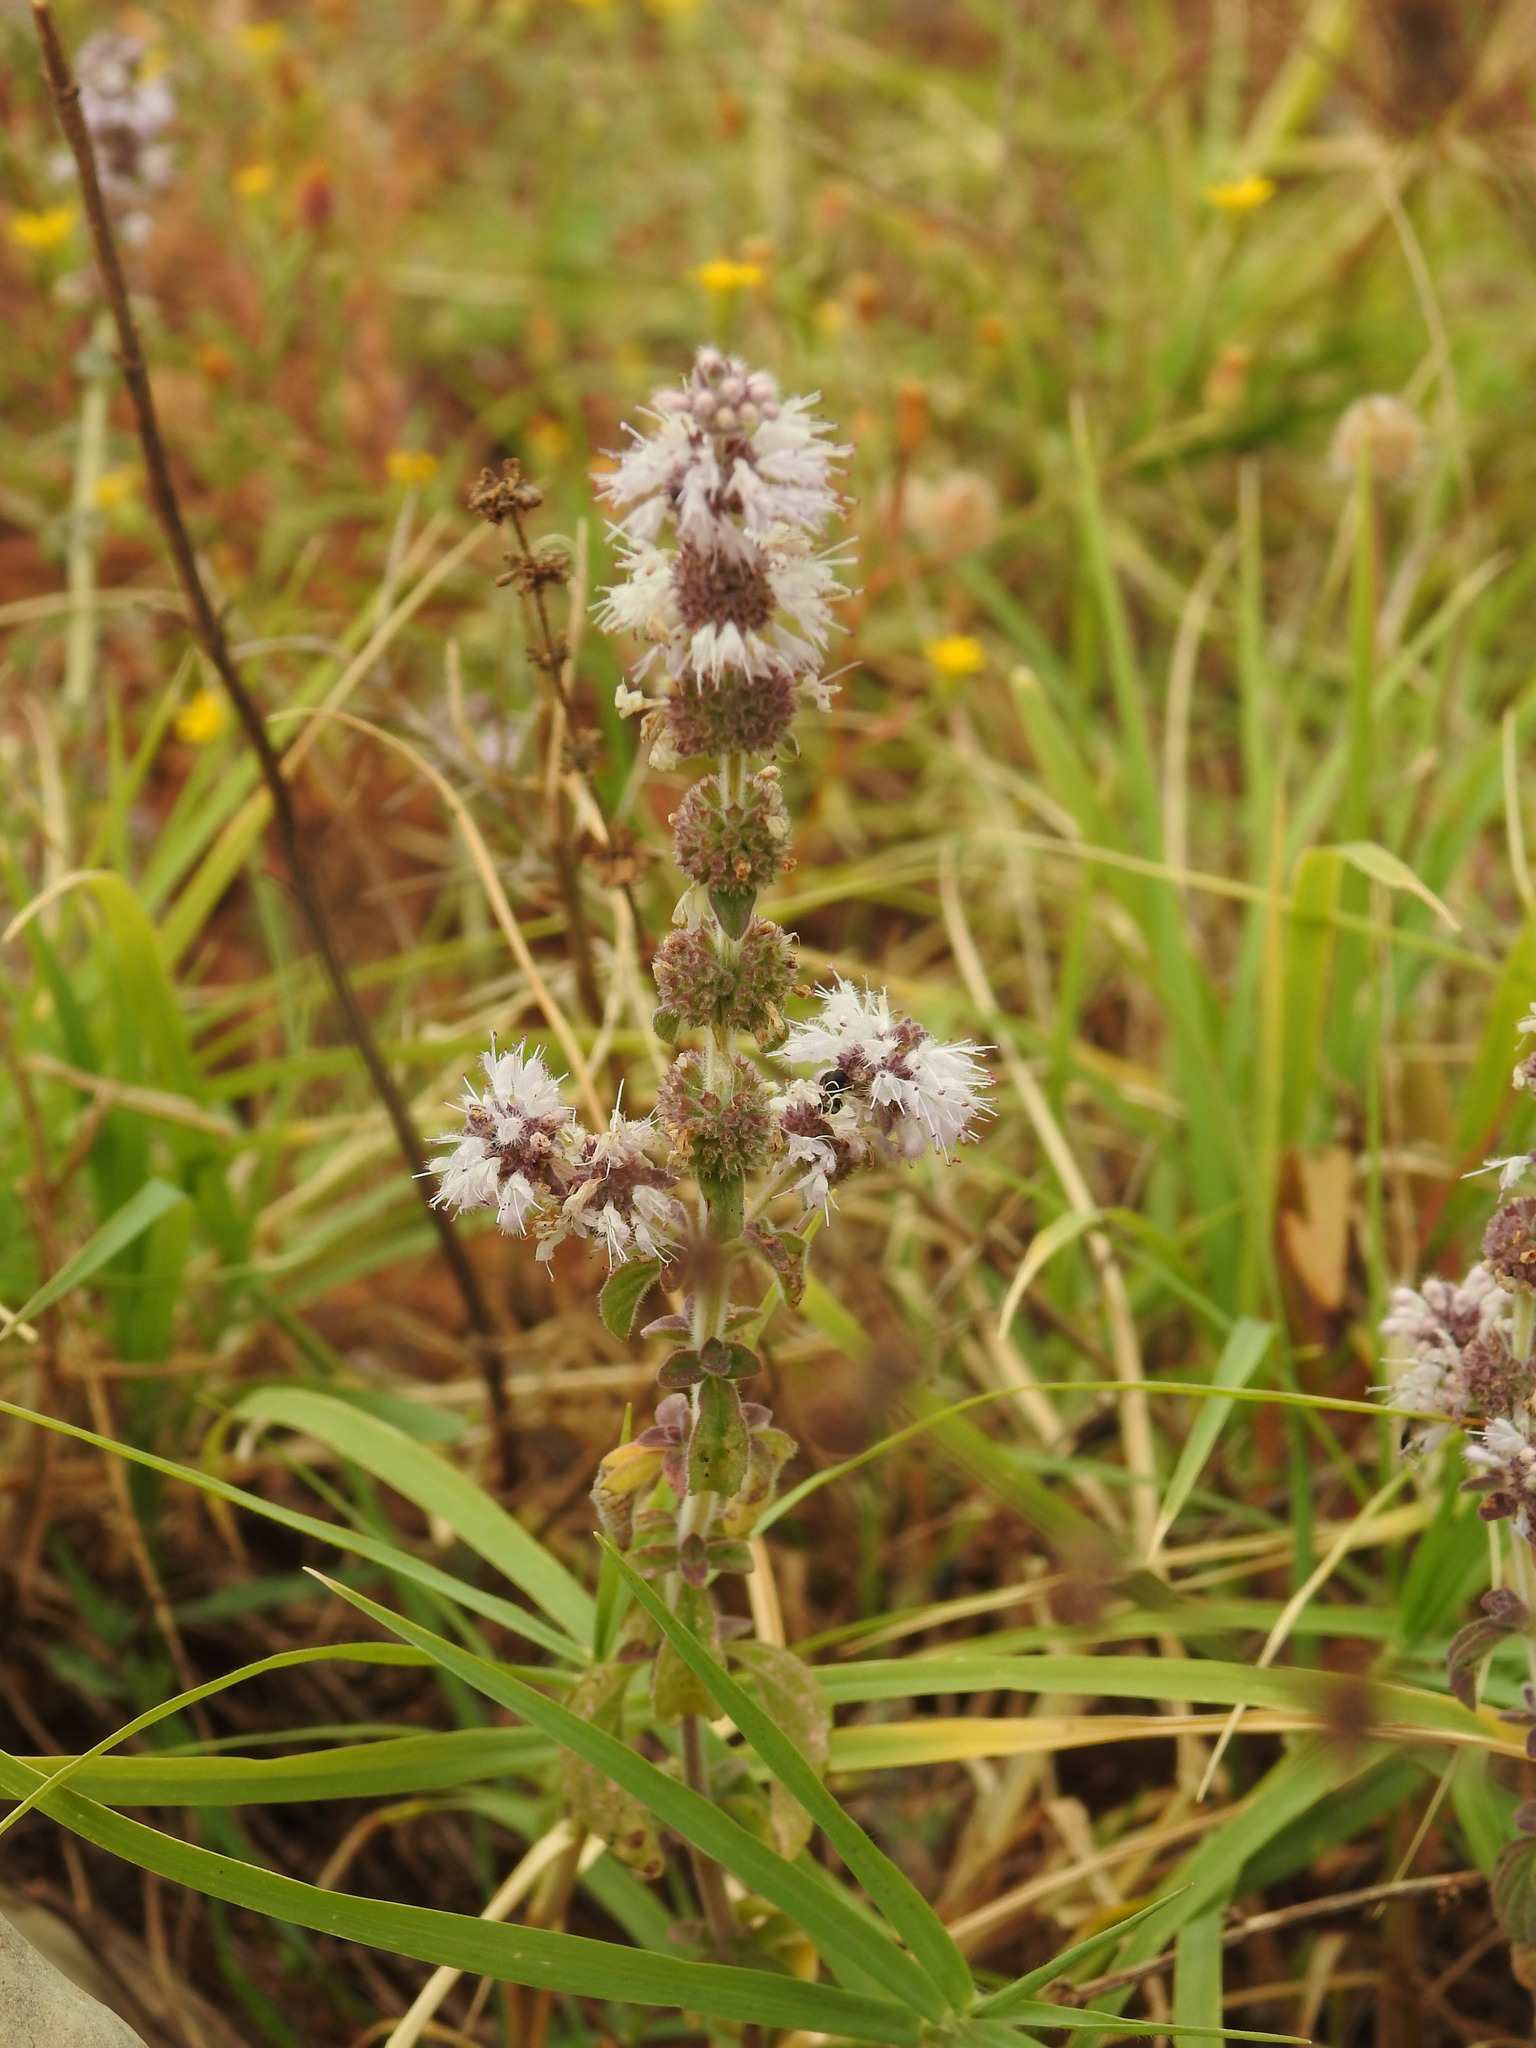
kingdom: Plantae
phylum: Tracheophyta
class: Magnoliopsida
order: Lamiales
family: Lamiaceae
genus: Mentha
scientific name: Mentha pulegium
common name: Pennyroyal
